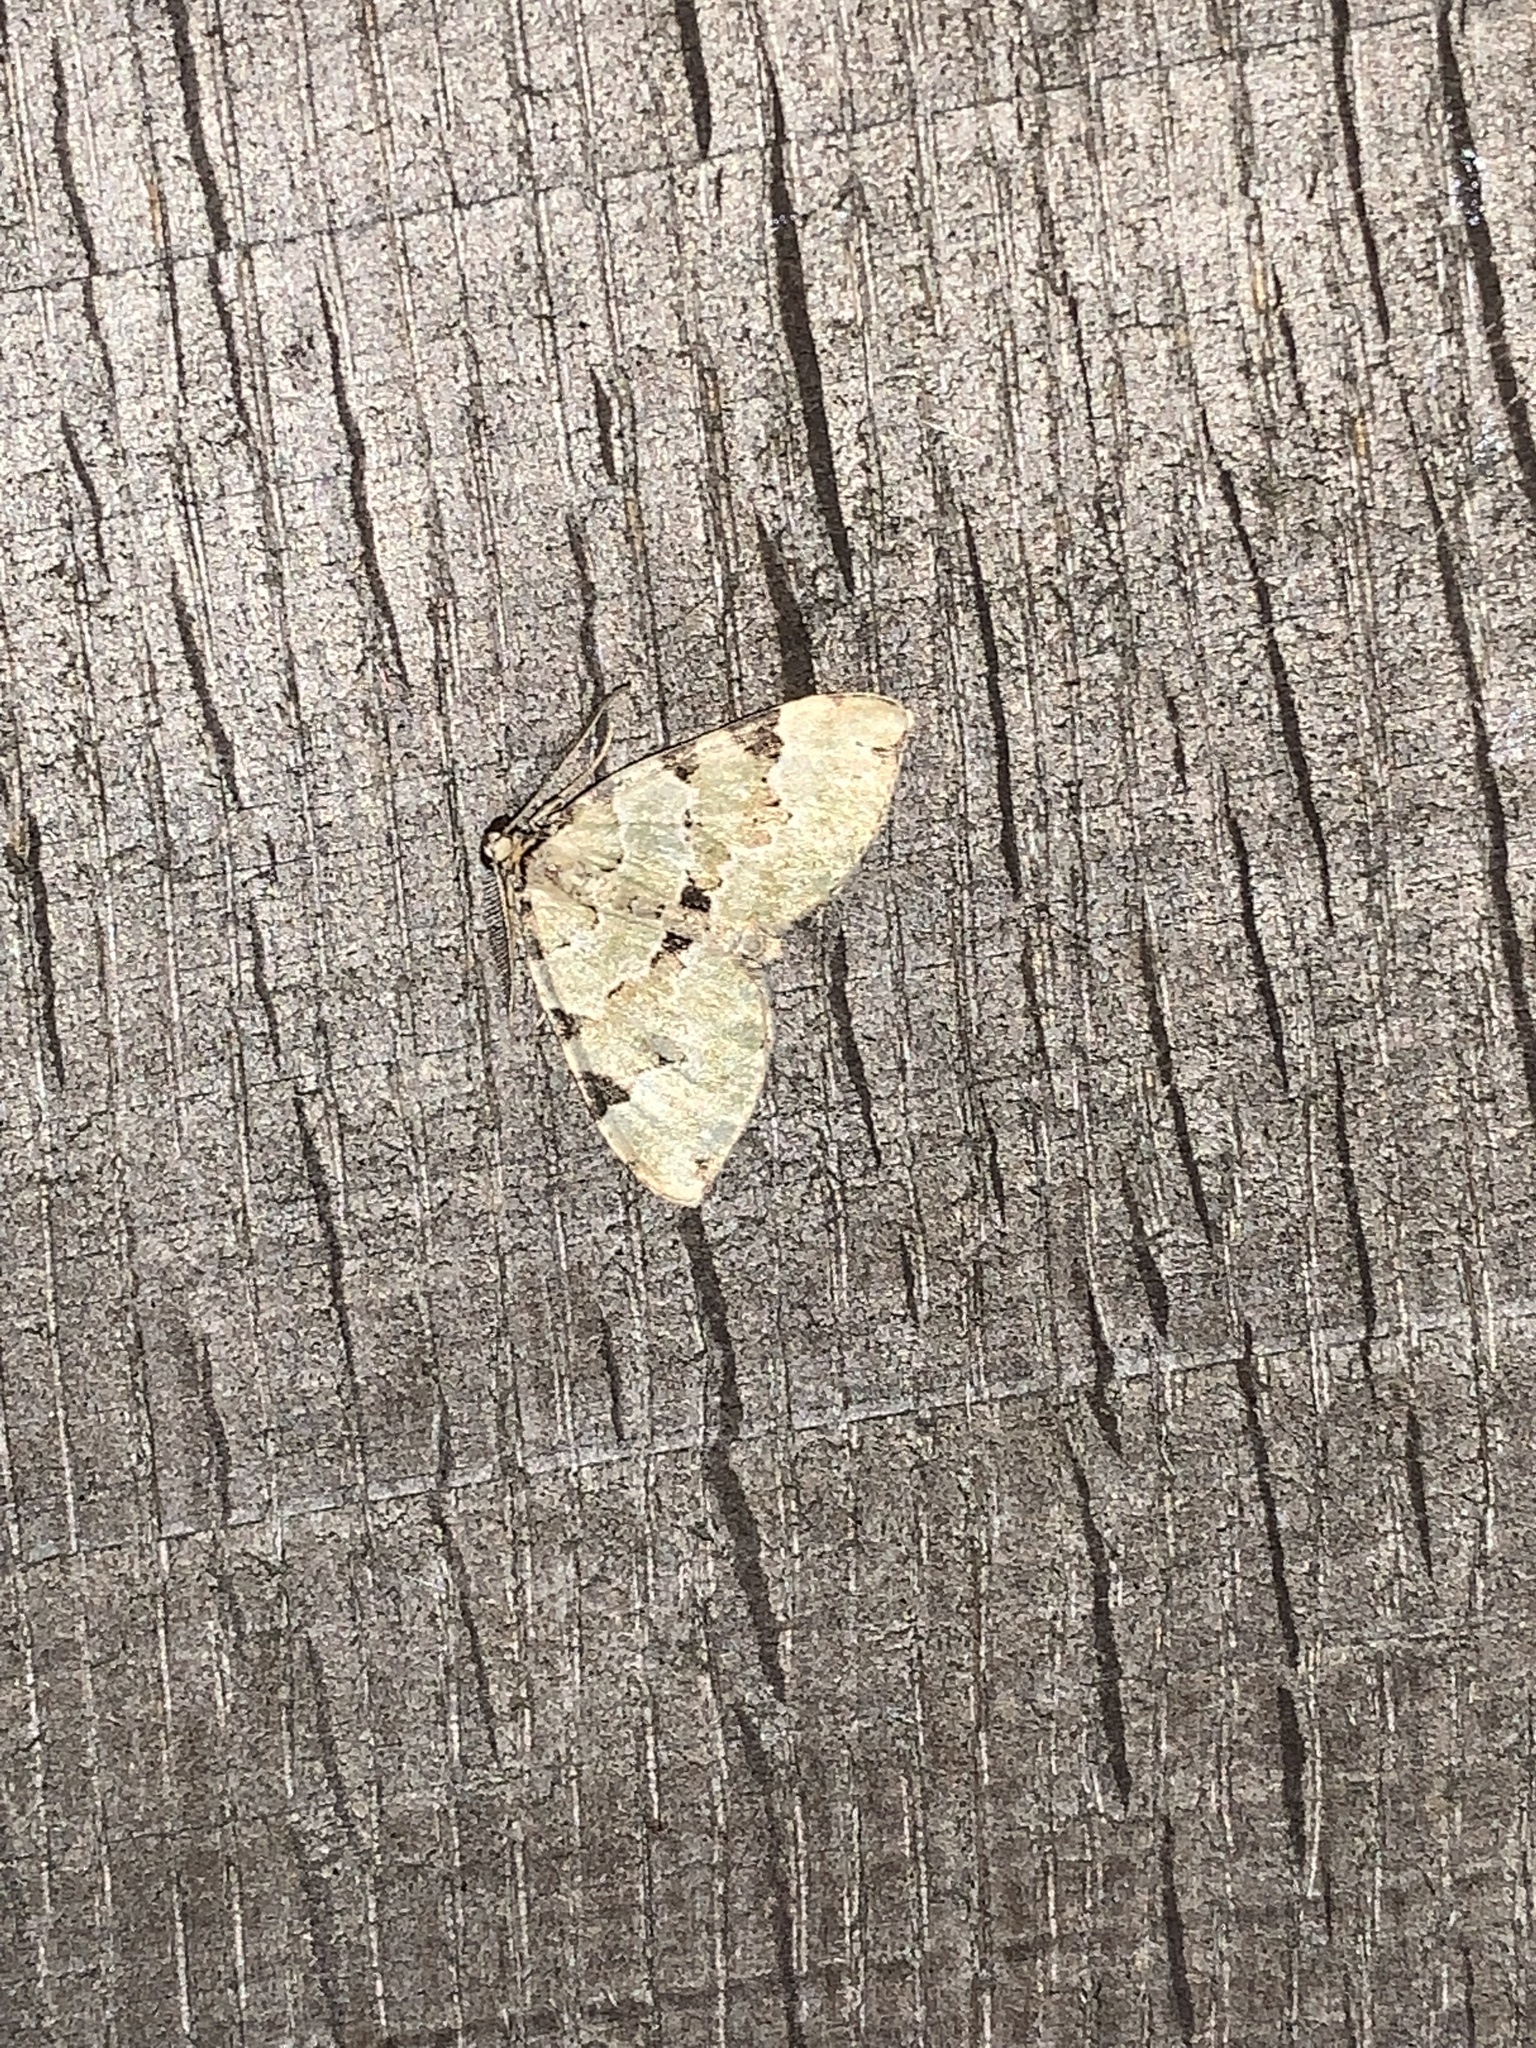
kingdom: Animalia
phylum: Arthropoda
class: Insecta
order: Lepidoptera
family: Geometridae
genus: Colostygia
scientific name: Colostygia pectinataria
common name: Green carpet
